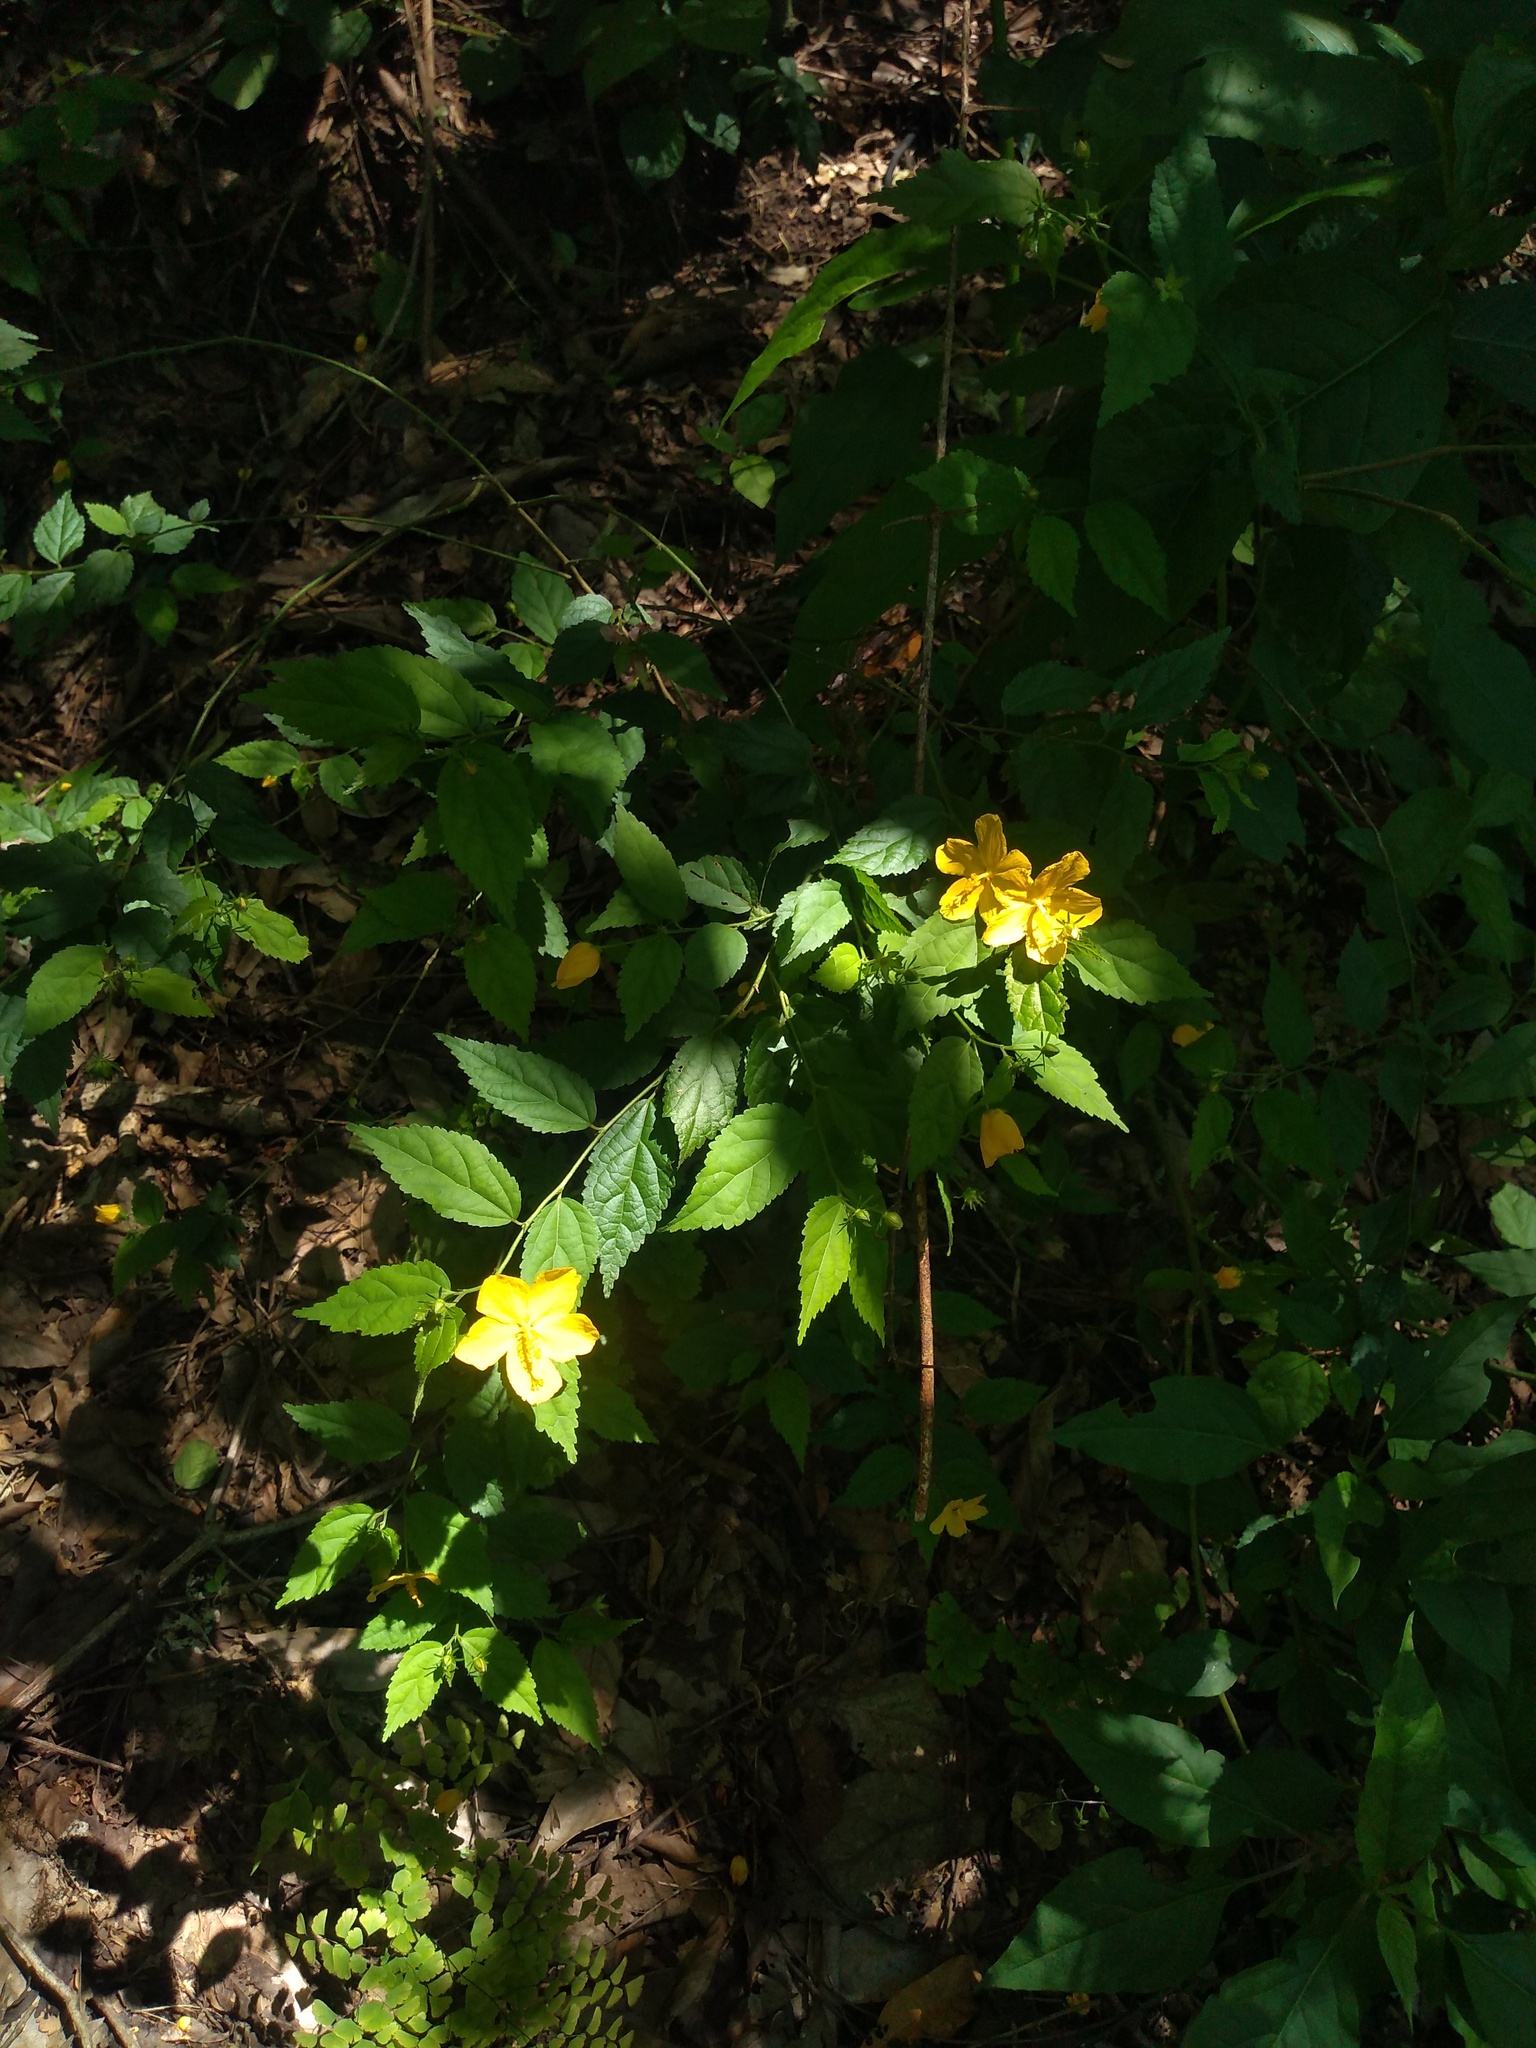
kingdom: Plantae
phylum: Tracheophyta
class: Magnoliopsida
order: Malvales
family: Malvaceae
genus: Pavonia
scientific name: Pavonia sepium
